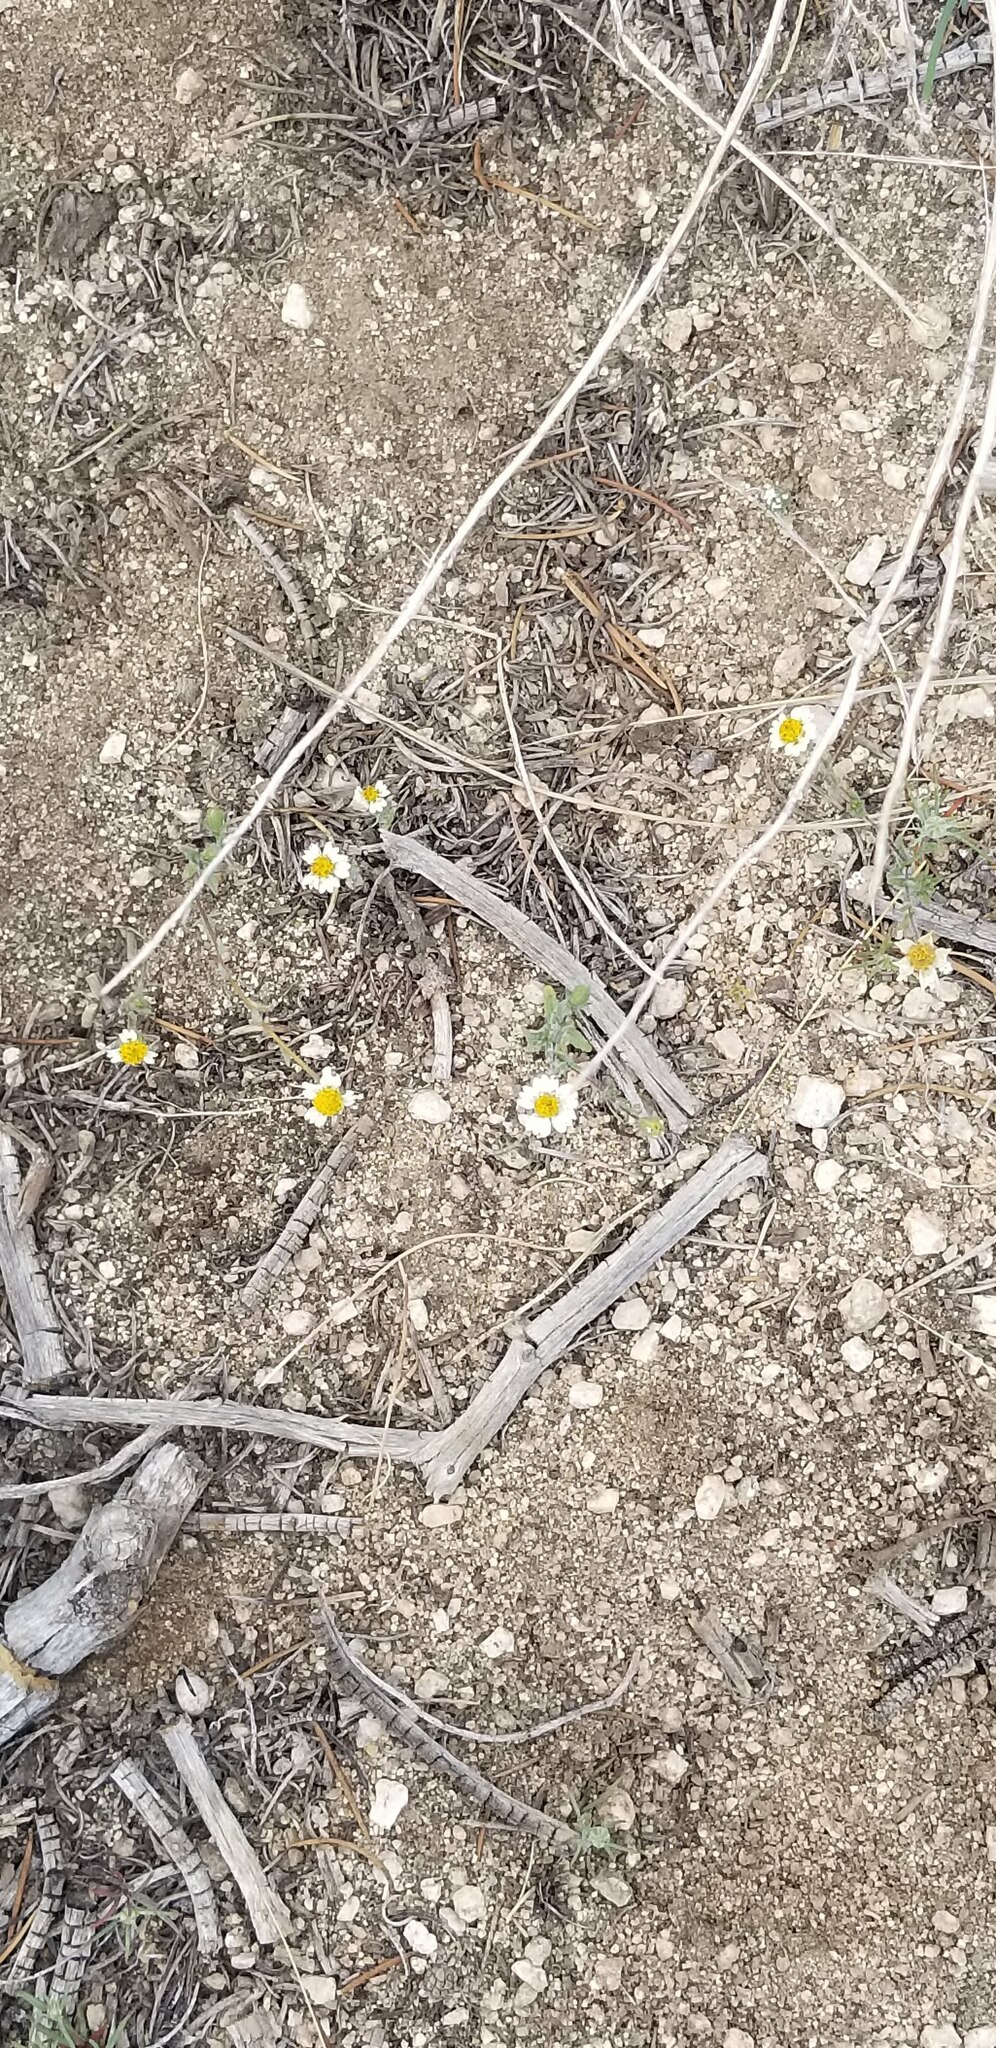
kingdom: Plantae
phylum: Tracheophyta
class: Magnoliopsida
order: Asterales
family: Asteraceae
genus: Layia
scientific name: Layia glandulosa
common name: White layia
